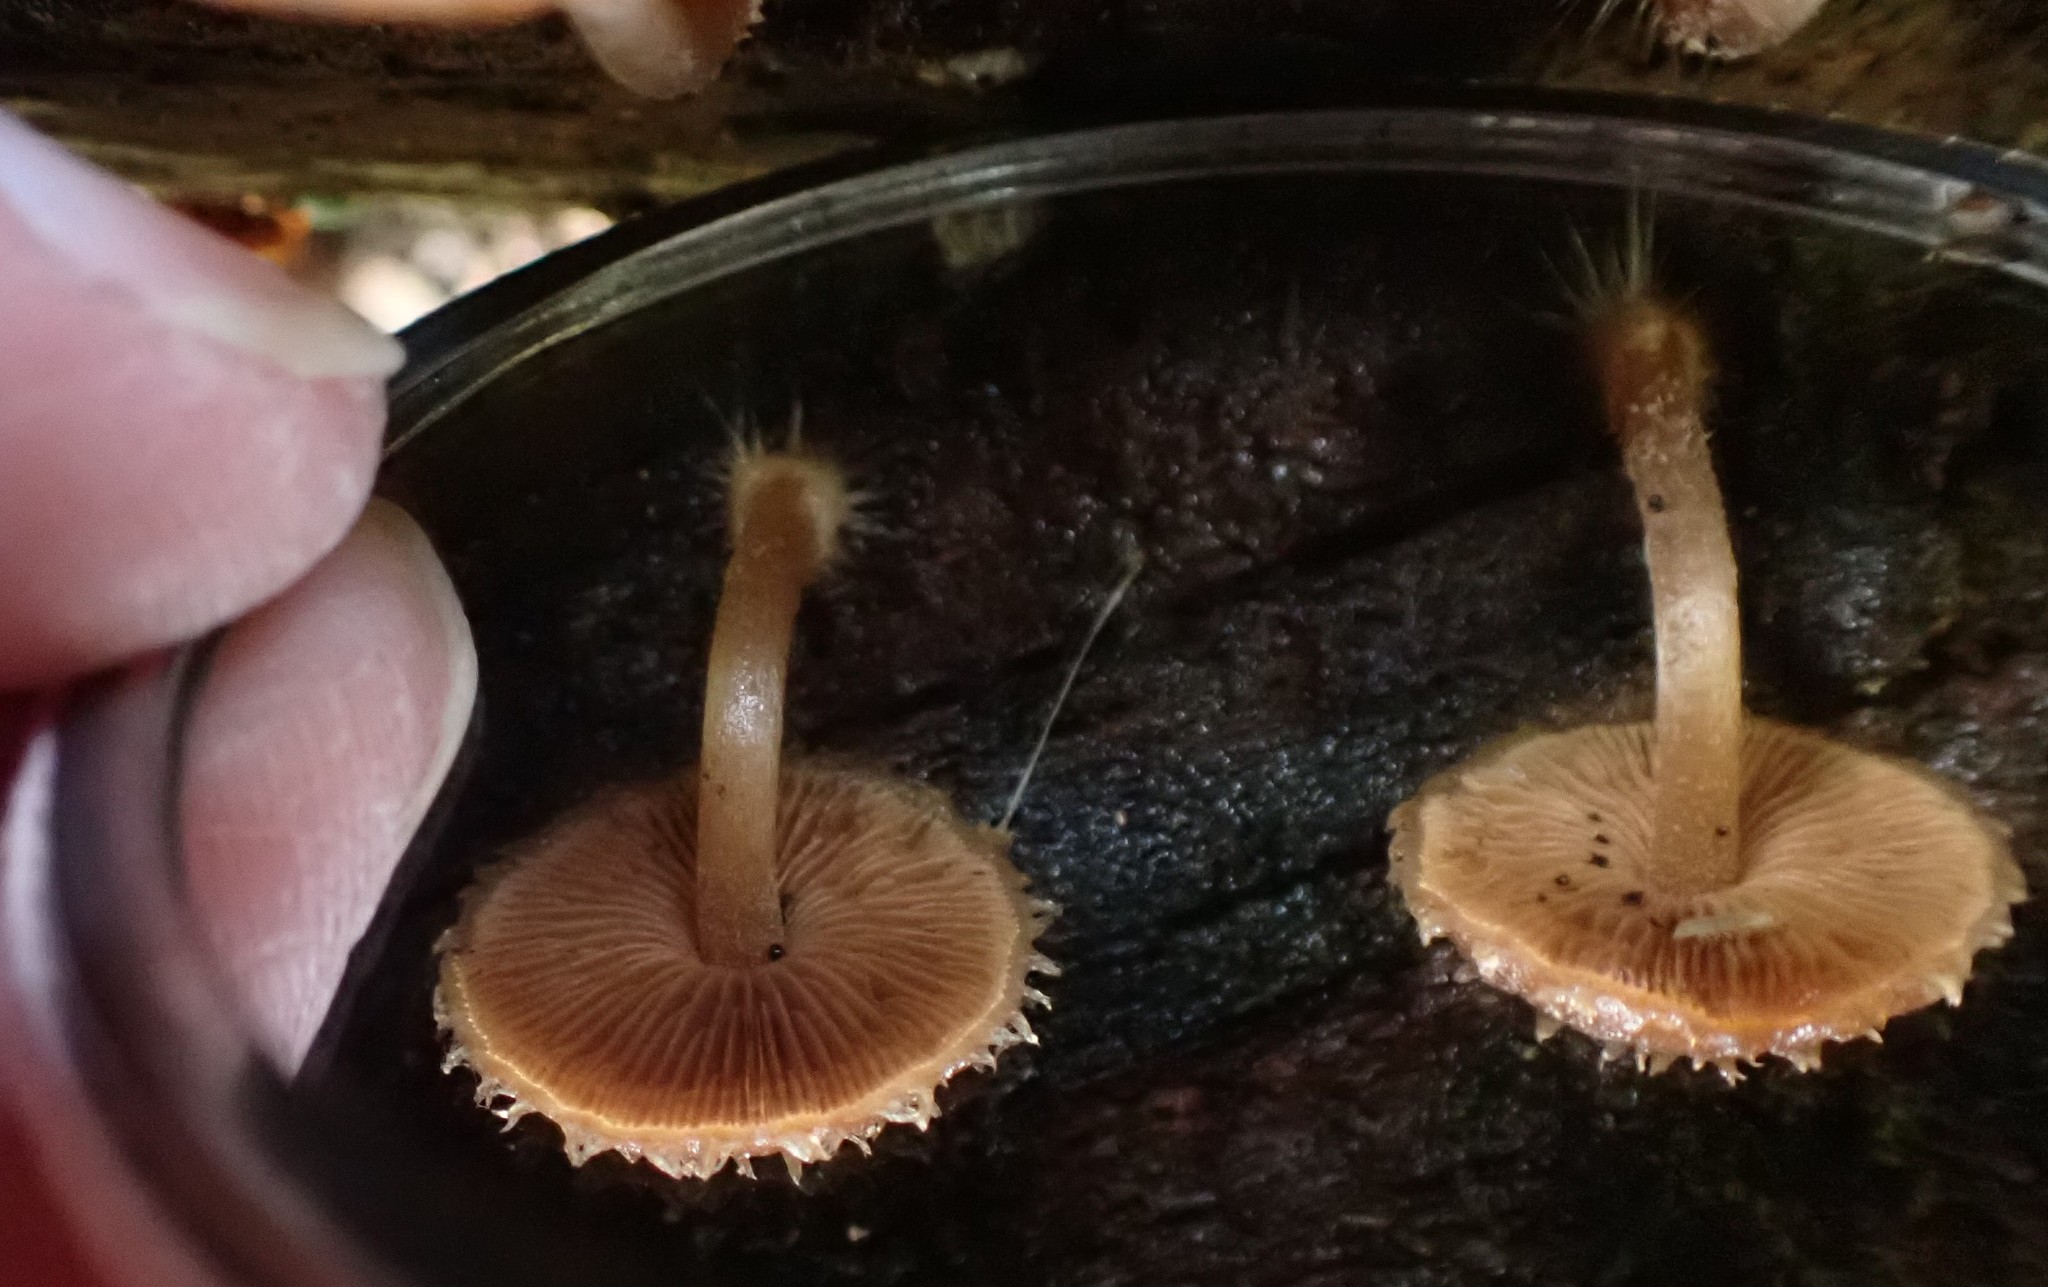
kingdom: Fungi
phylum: Basidiomycota
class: Agaricomycetes
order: Agaricales
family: Psathyrellaceae
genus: Psathyrella
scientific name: Psathyrella echinata
